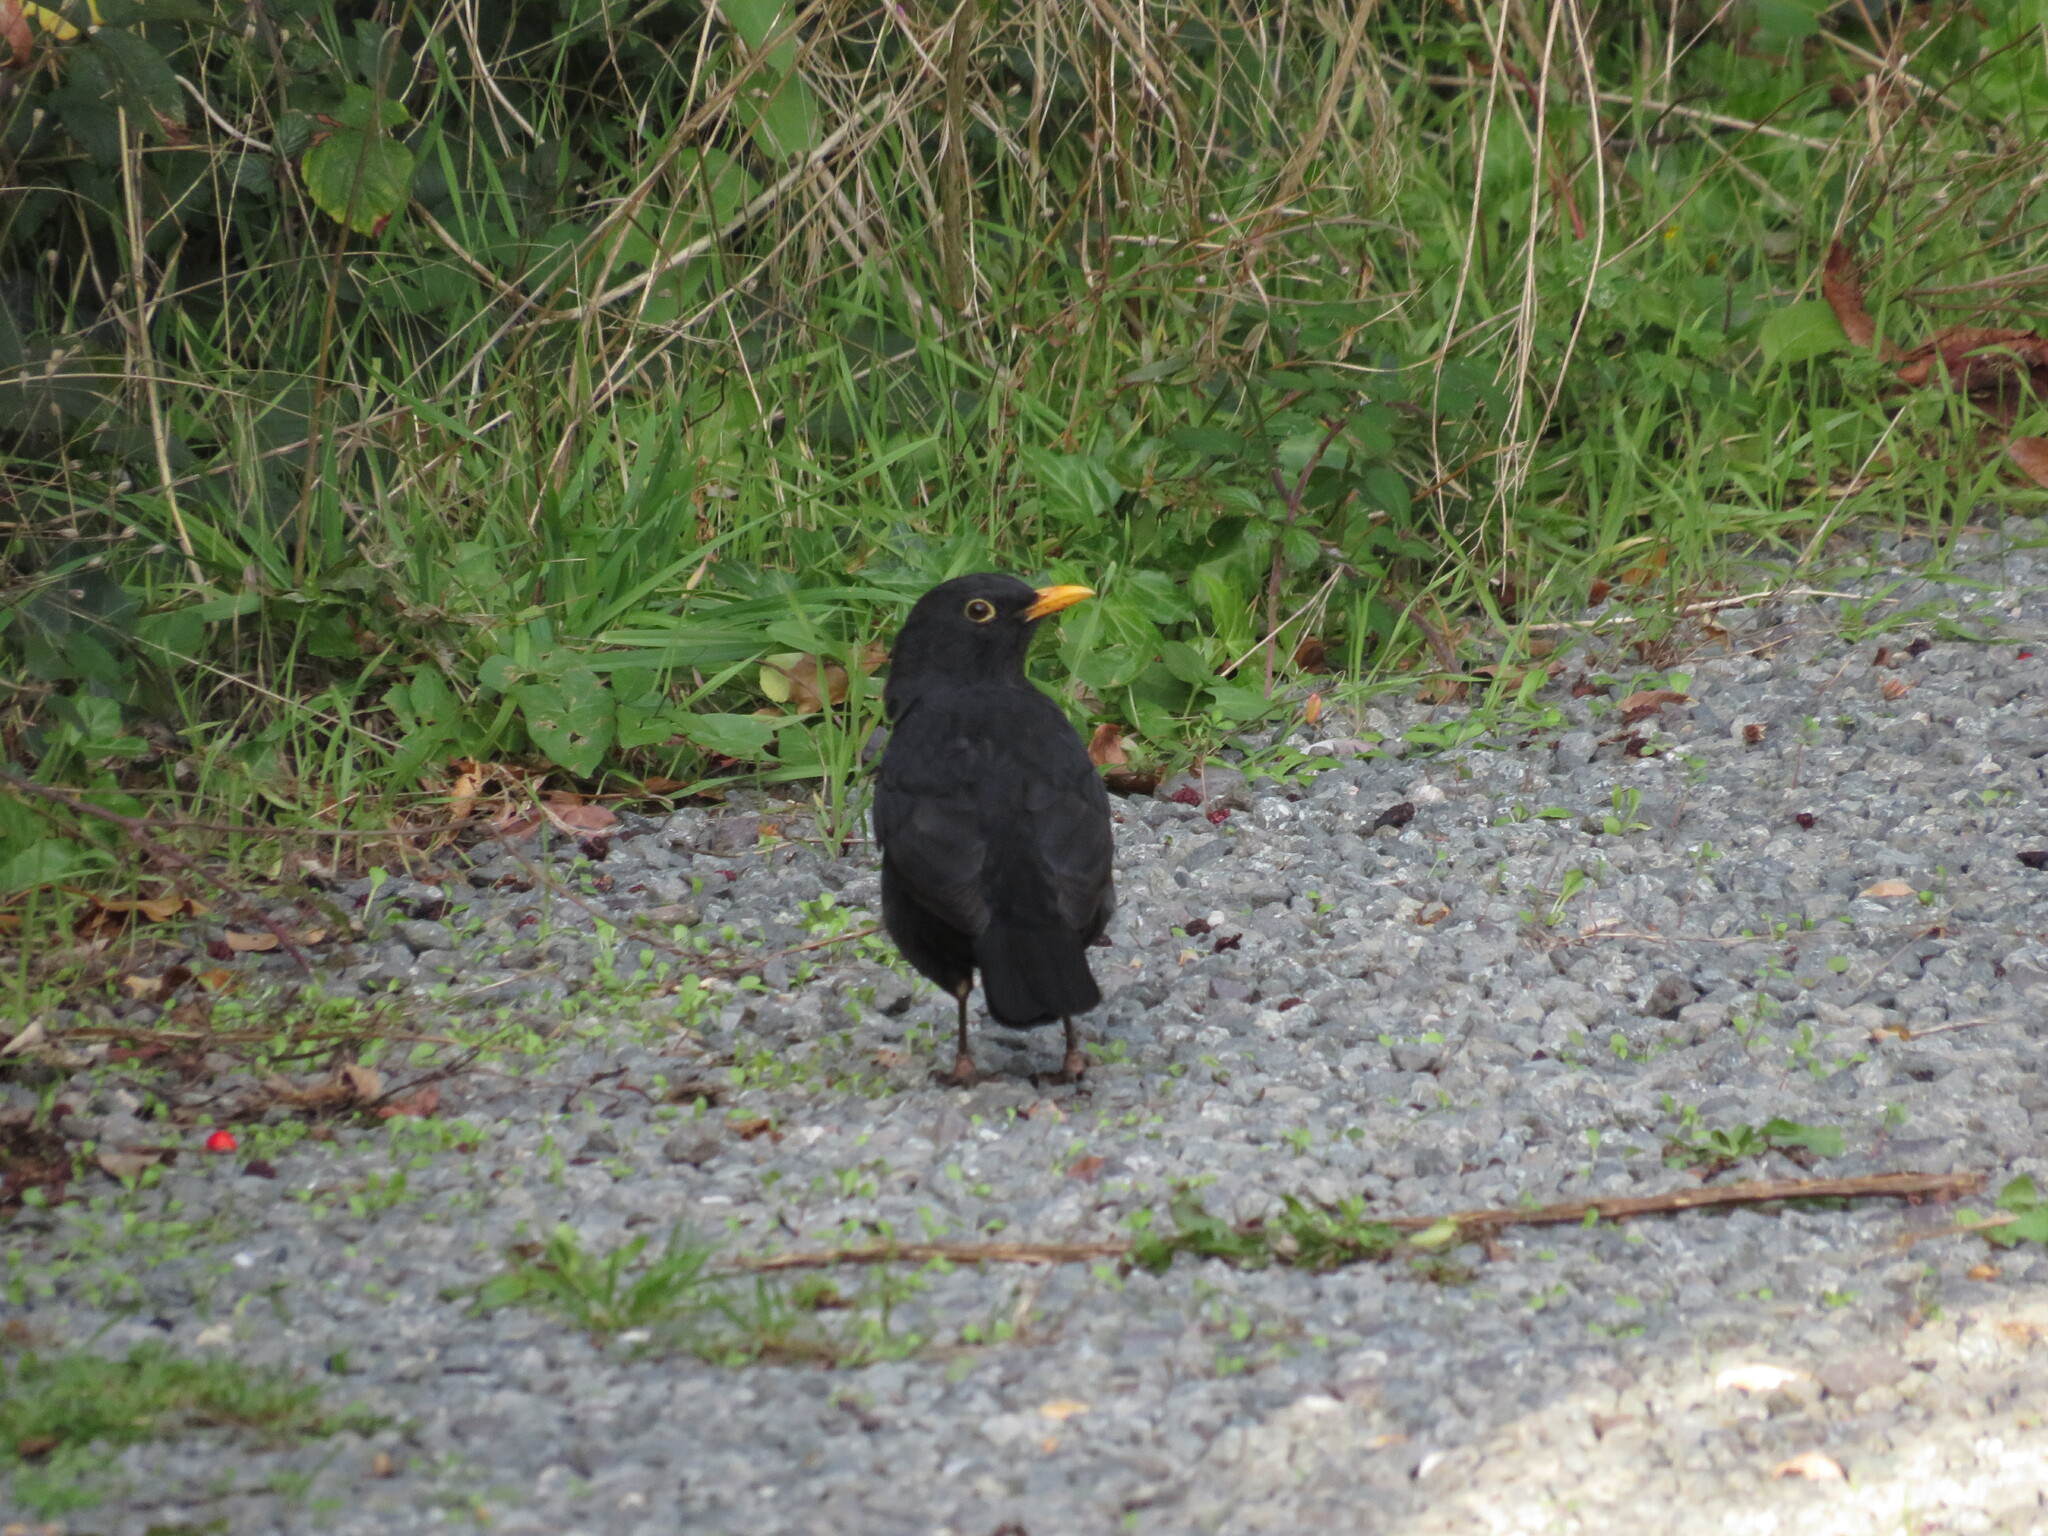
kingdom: Animalia
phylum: Chordata
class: Aves
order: Passeriformes
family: Turdidae
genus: Turdus
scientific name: Turdus merula
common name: Common blackbird
